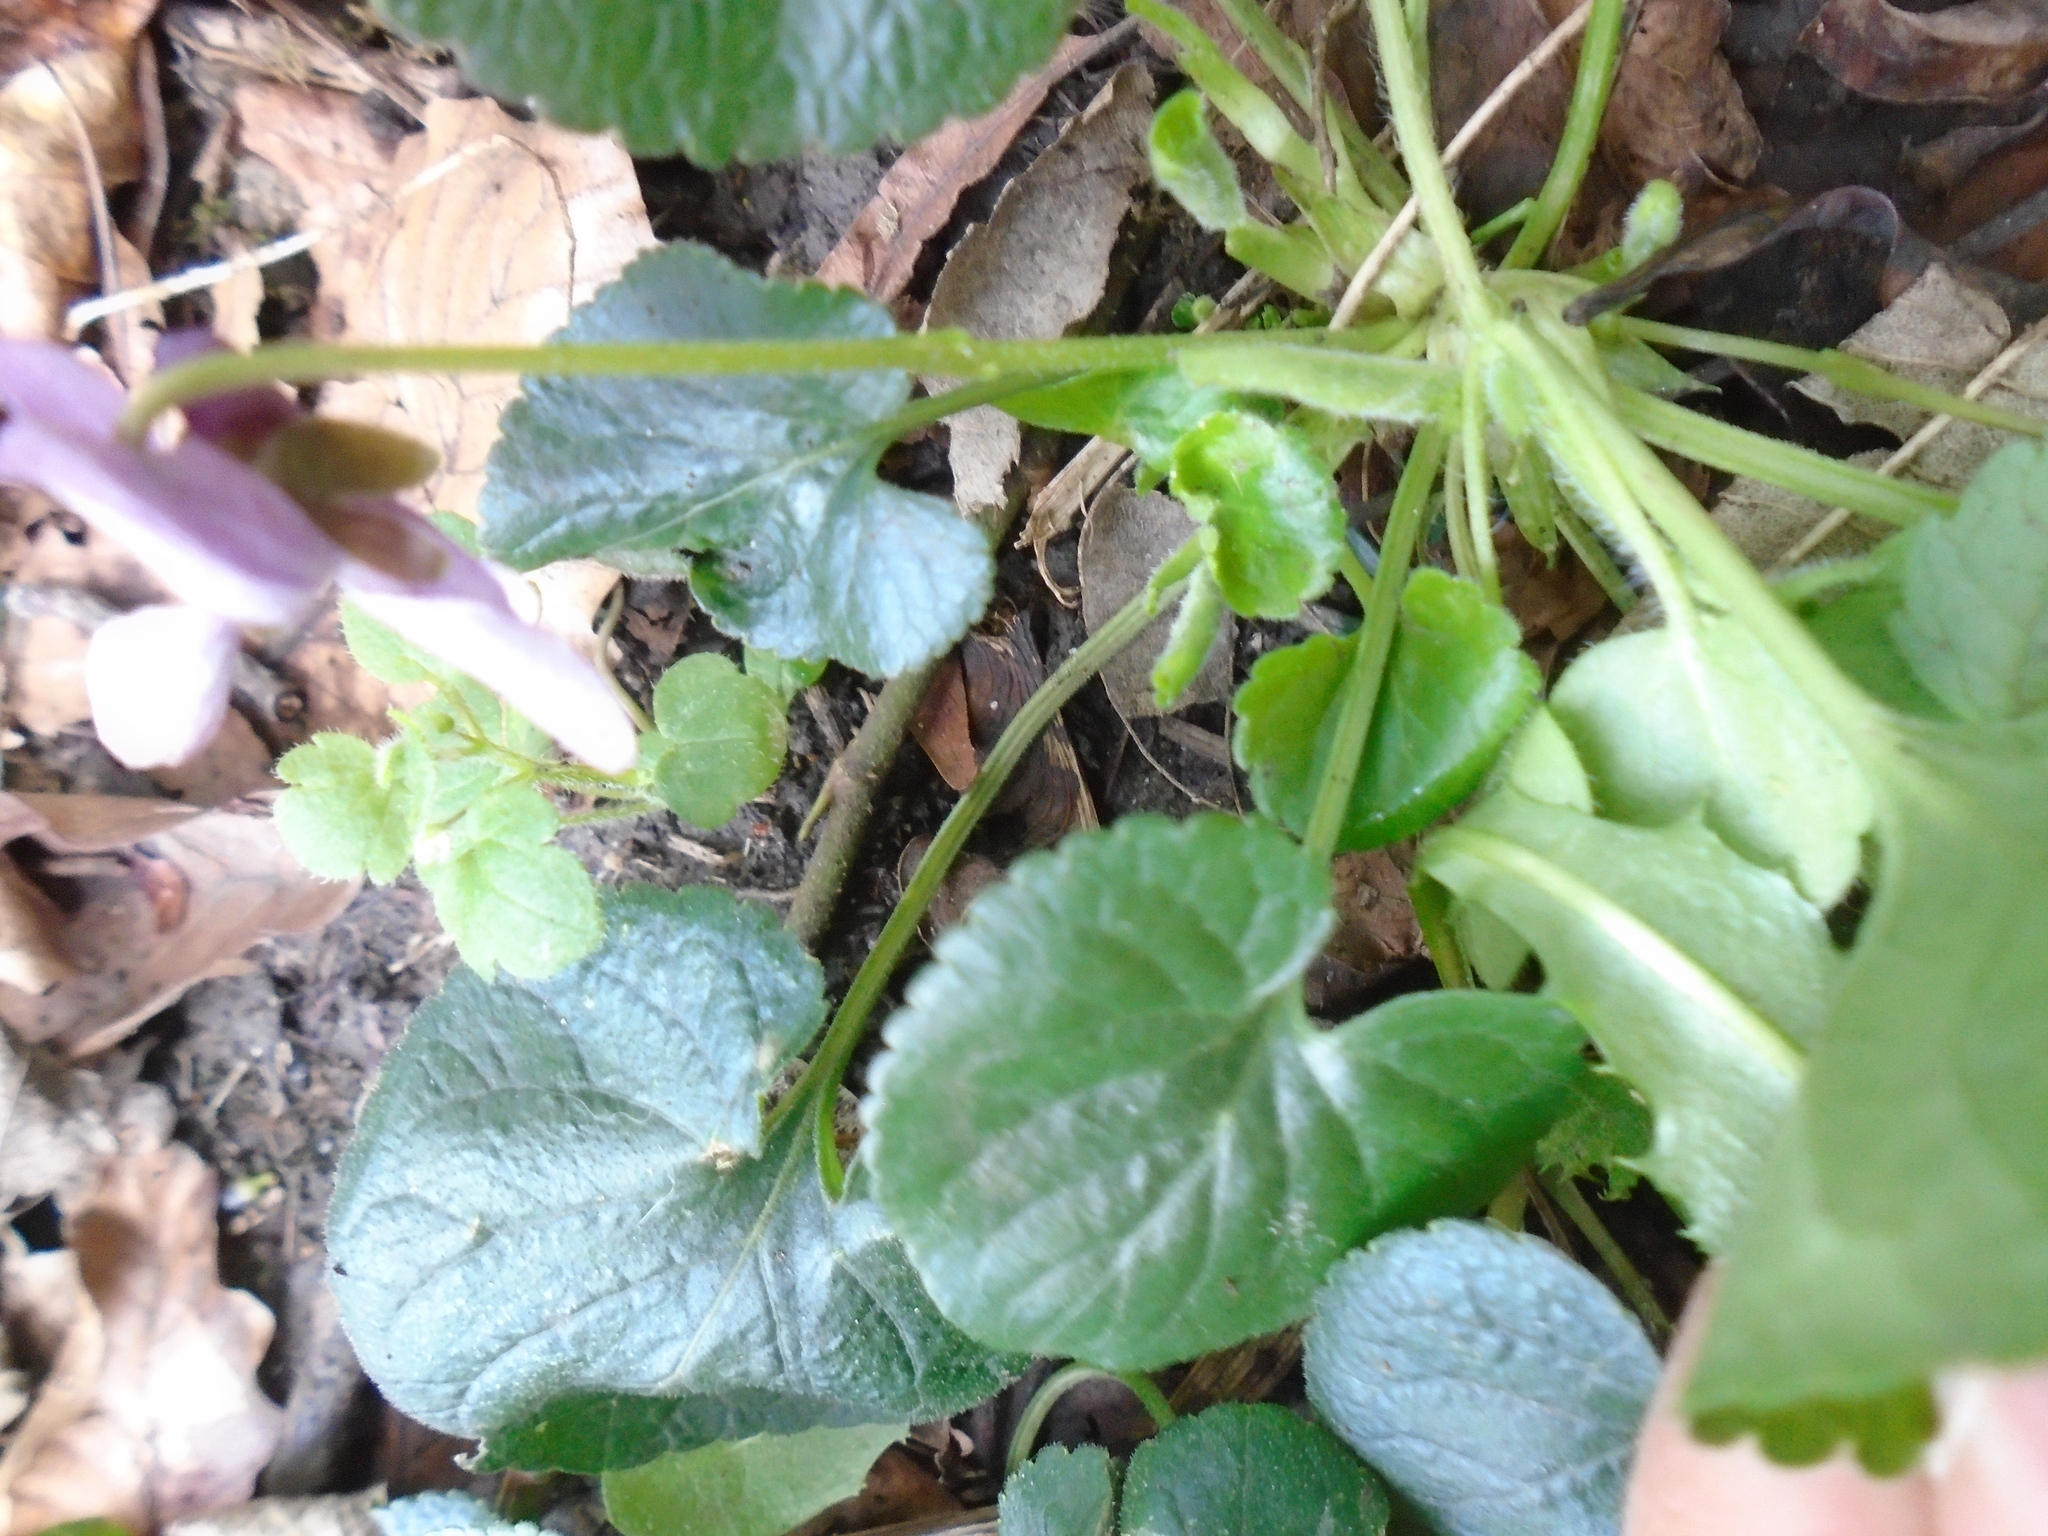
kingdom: Plantae
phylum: Tracheophyta
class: Magnoliopsida
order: Malpighiales
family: Violaceae
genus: Viola
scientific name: Viola odorata
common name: Sweet violet
